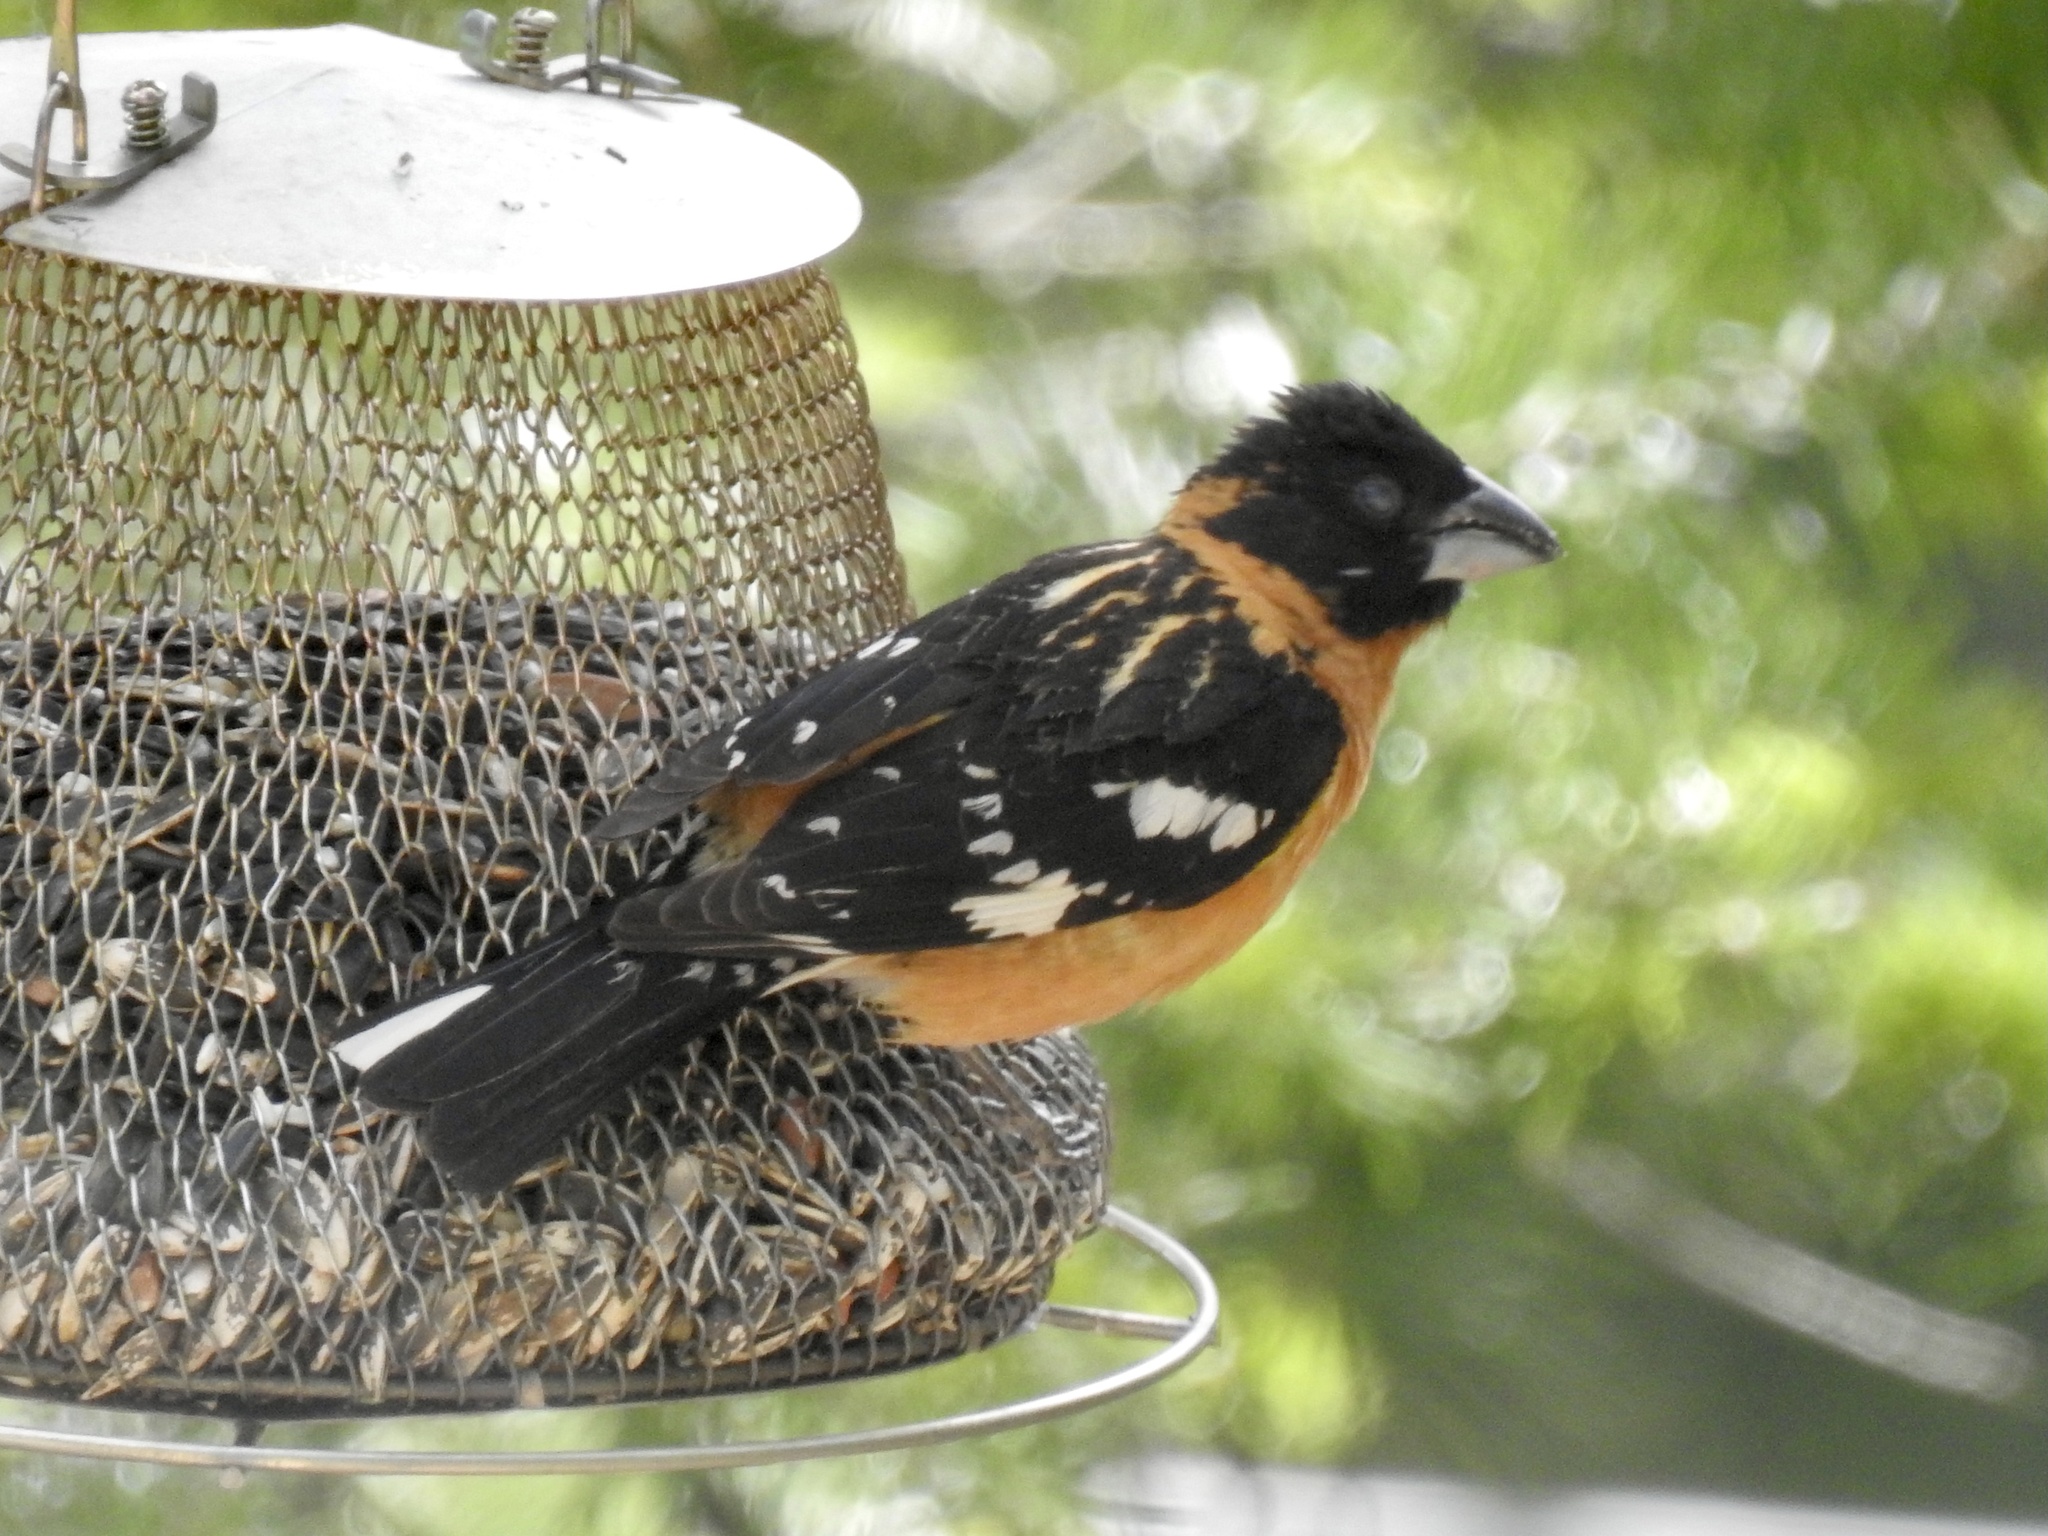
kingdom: Animalia
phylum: Chordata
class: Aves
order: Passeriformes
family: Cardinalidae
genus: Pheucticus
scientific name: Pheucticus melanocephalus
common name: Black-headed grosbeak
